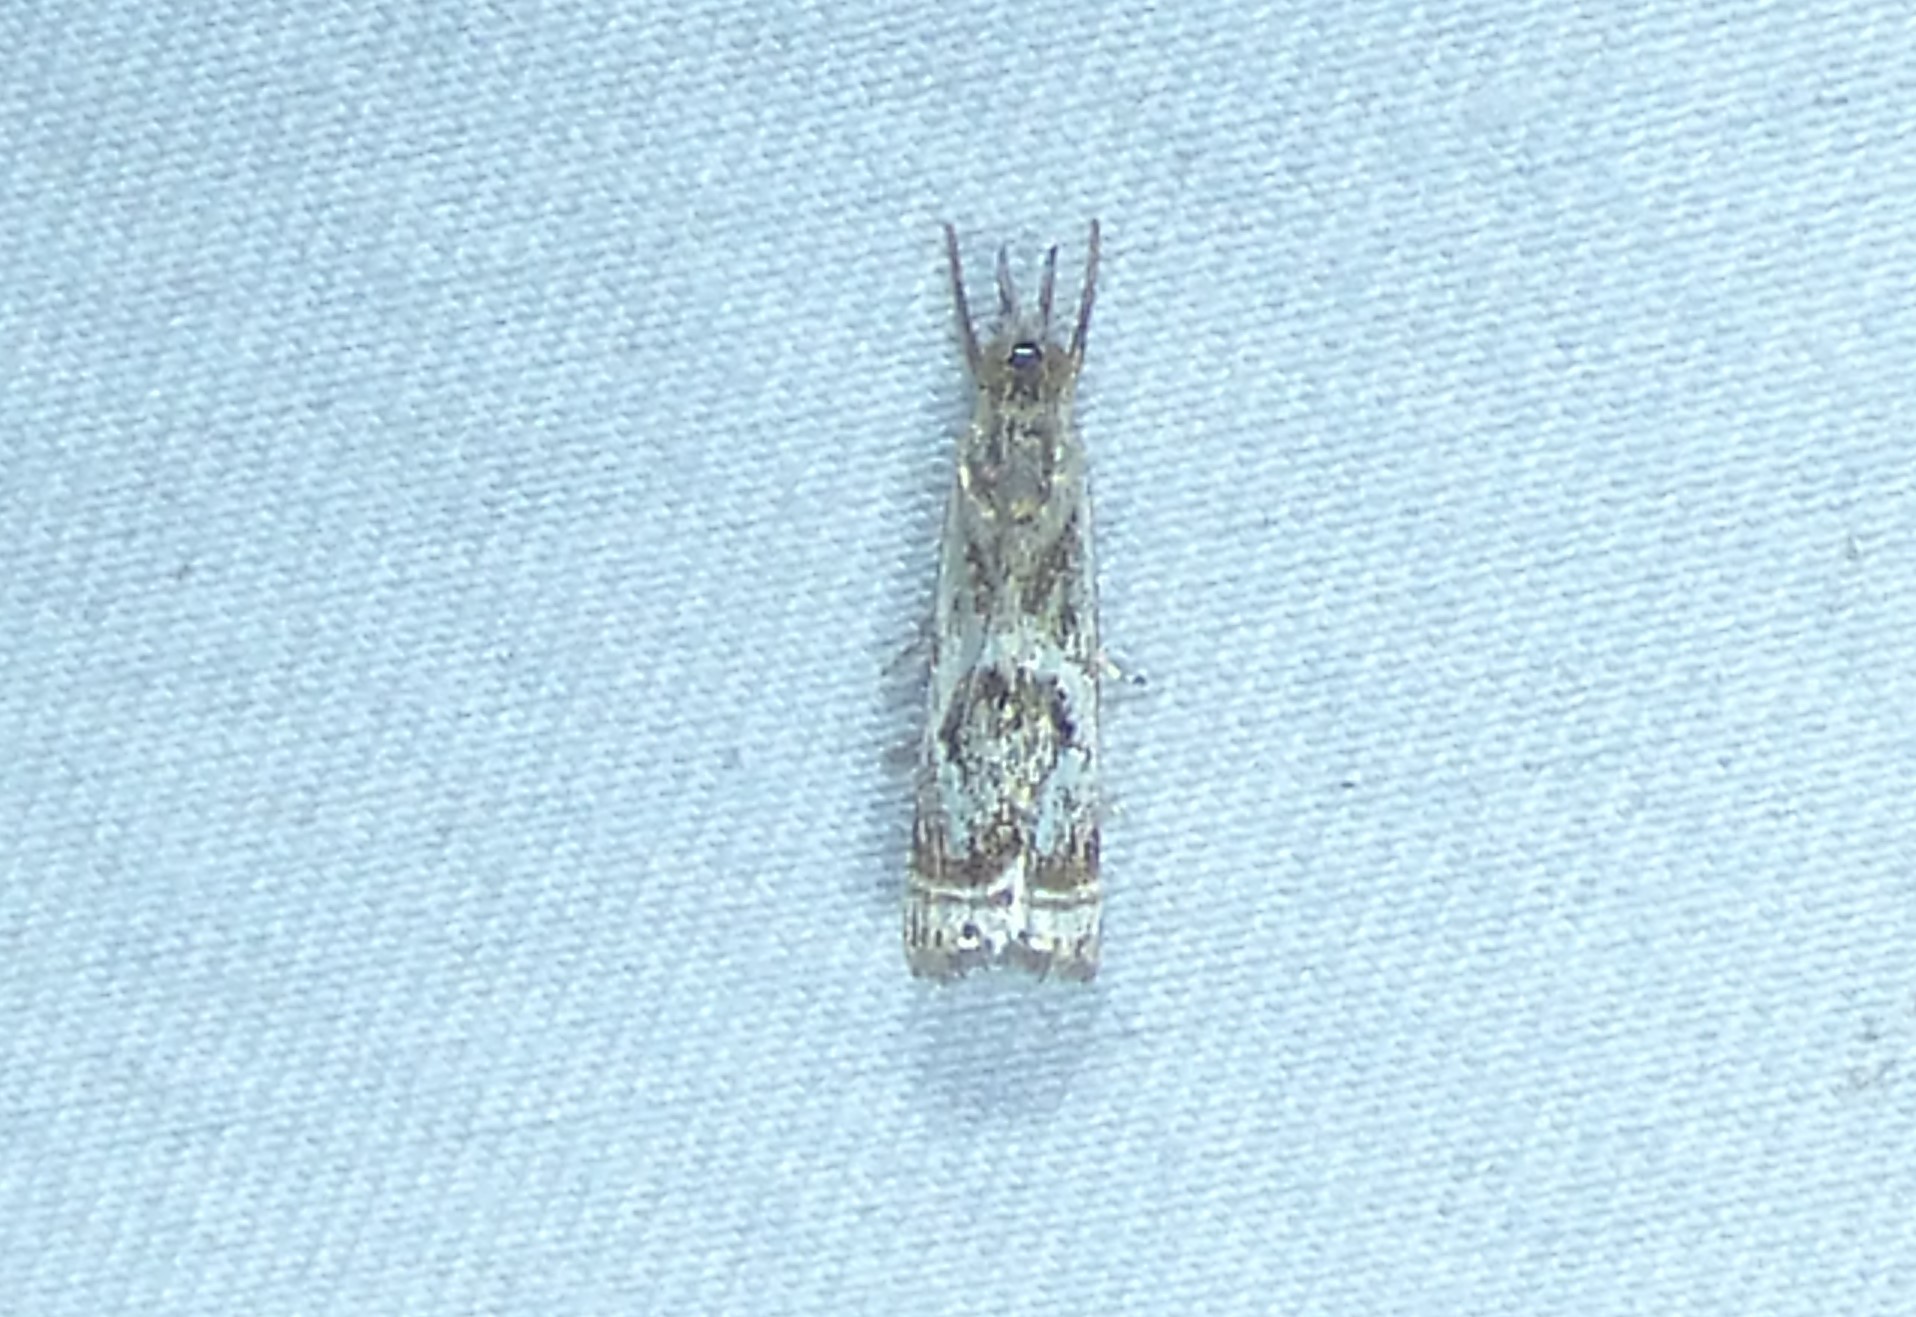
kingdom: Animalia
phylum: Arthropoda
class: Insecta
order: Lepidoptera
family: Crambidae
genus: Microcrambus
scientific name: Microcrambus elegans
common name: Elegant grass-veneer
